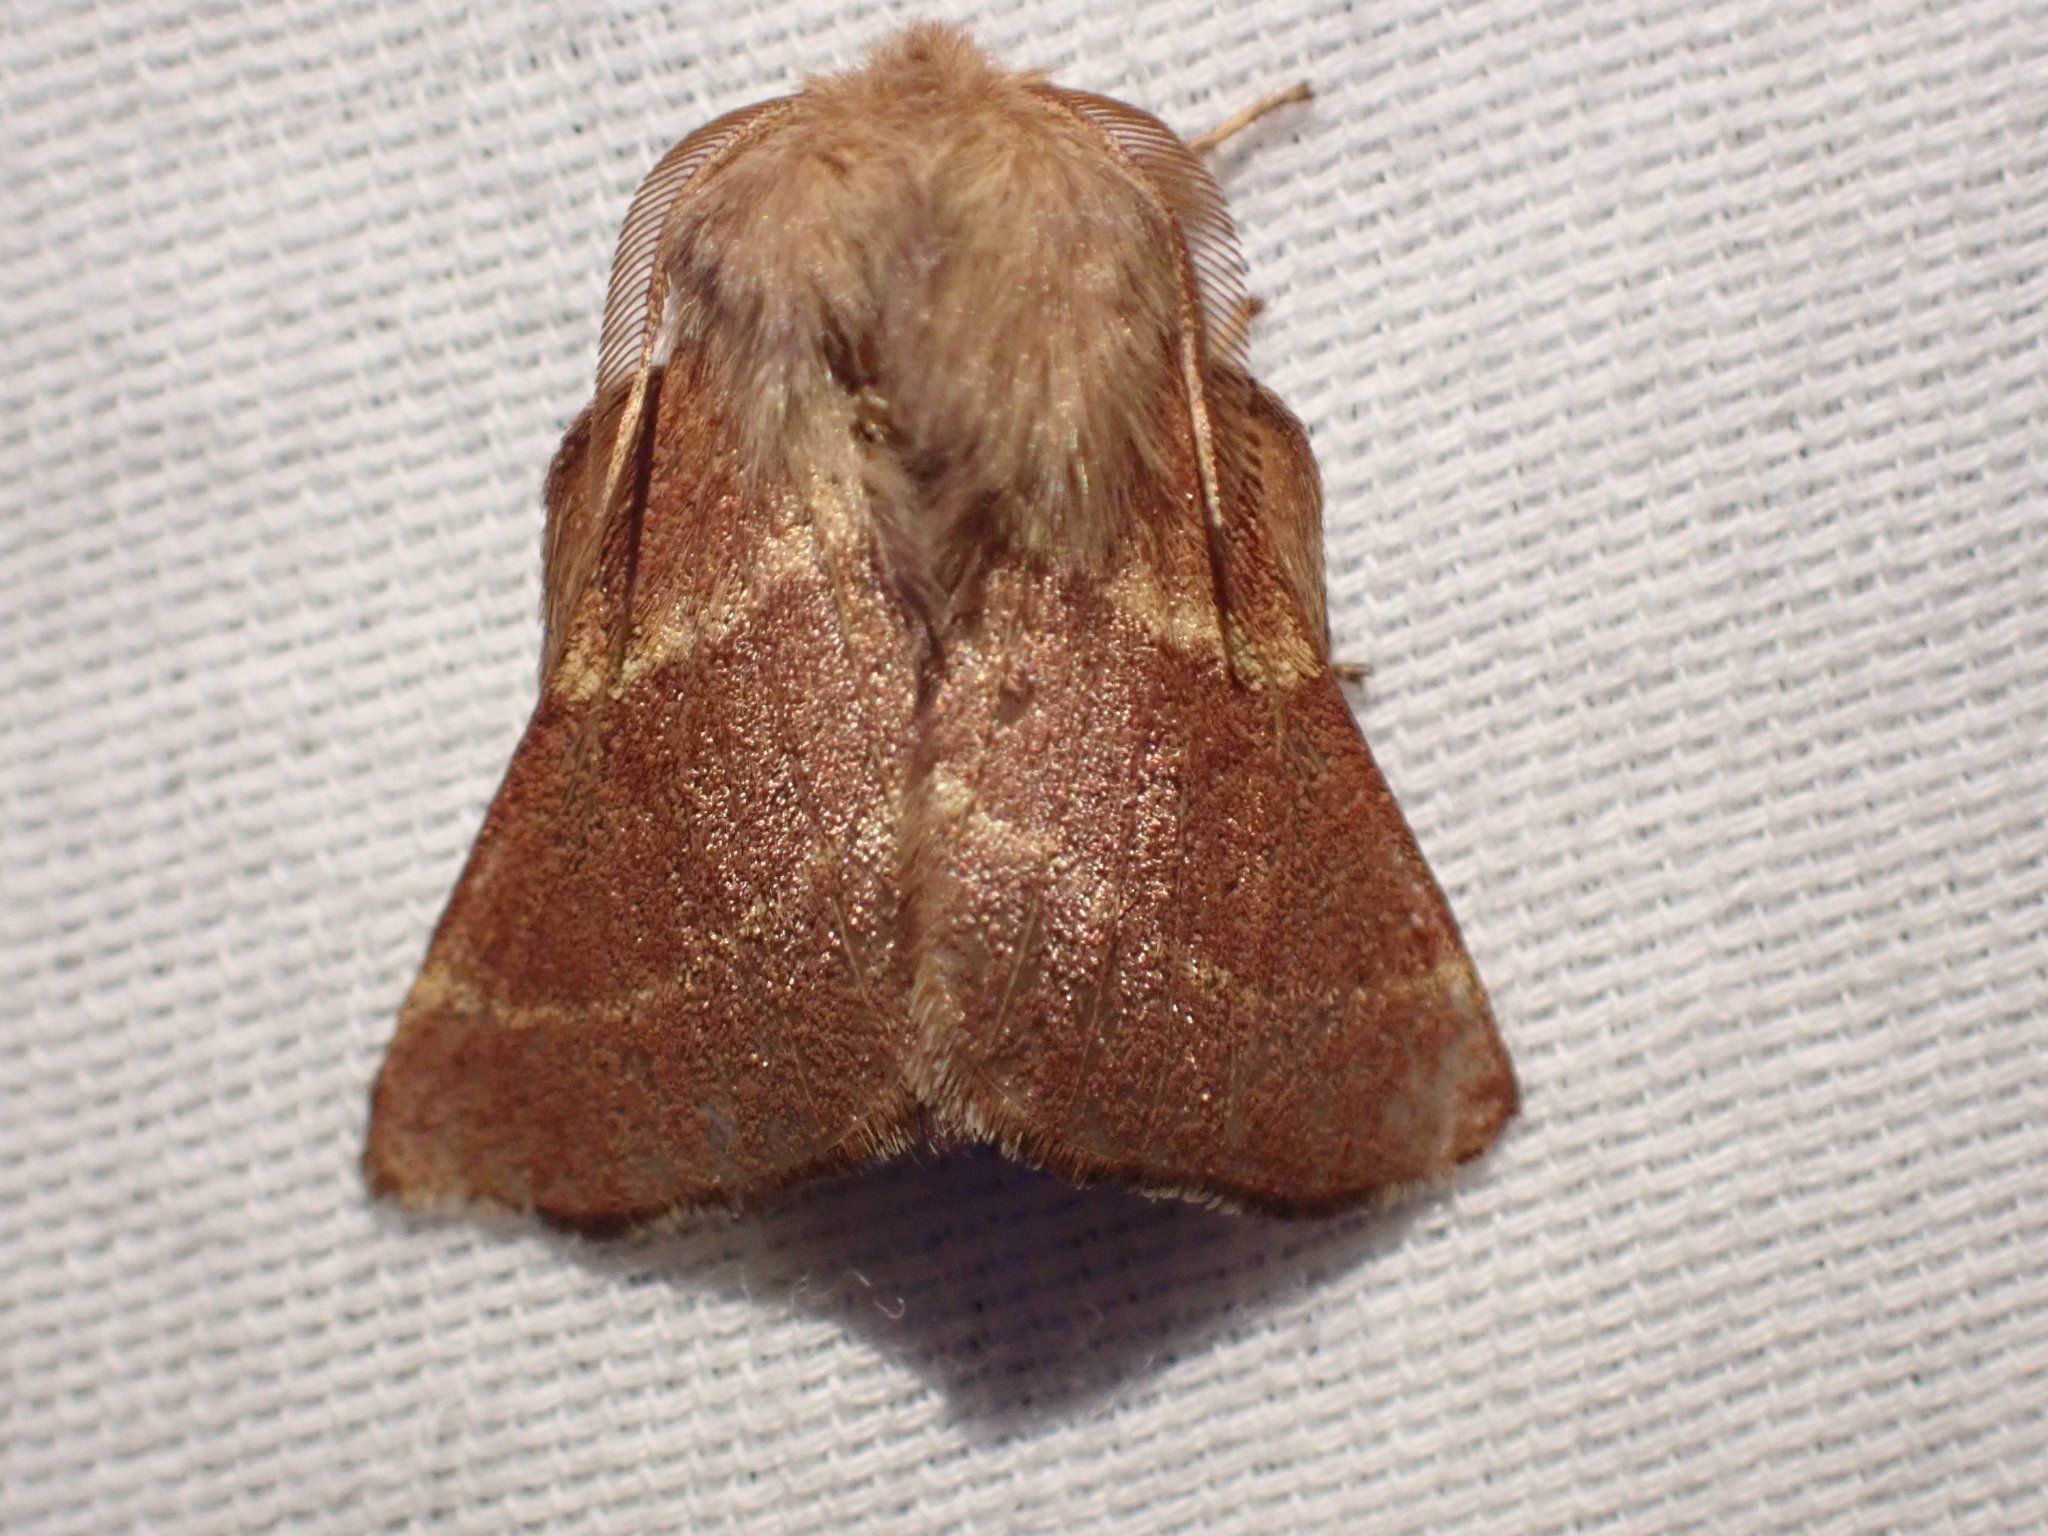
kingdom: Animalia
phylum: Arthropoda
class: Insecta
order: Lepidoptera
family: Lasiocampidae
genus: Malacosoma
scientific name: Malacosoma californica
